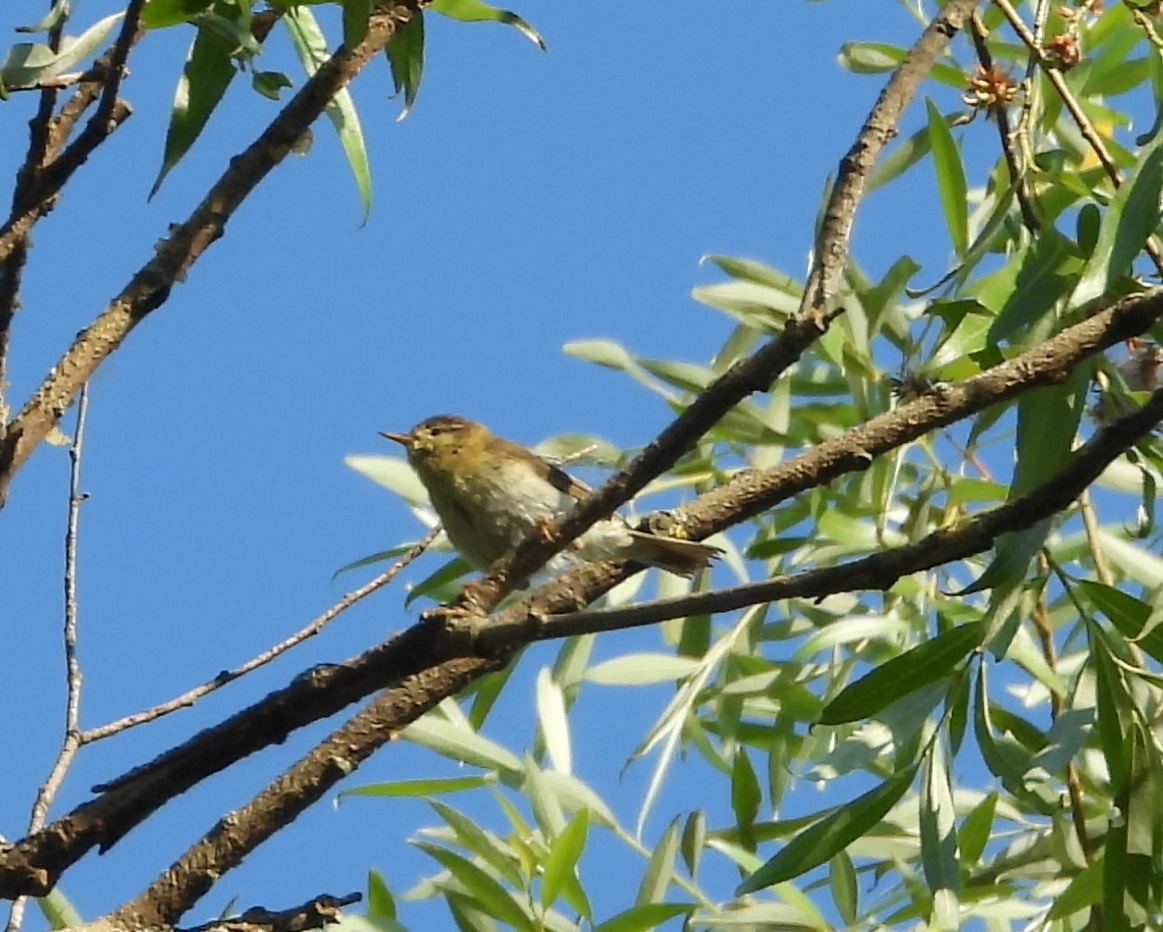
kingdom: Animalia
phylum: Chordata
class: Aves
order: Passeriformes
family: Phylloscopidae
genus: Phylloscopus
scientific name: Phylloscopus trochilus
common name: Willow warbler
